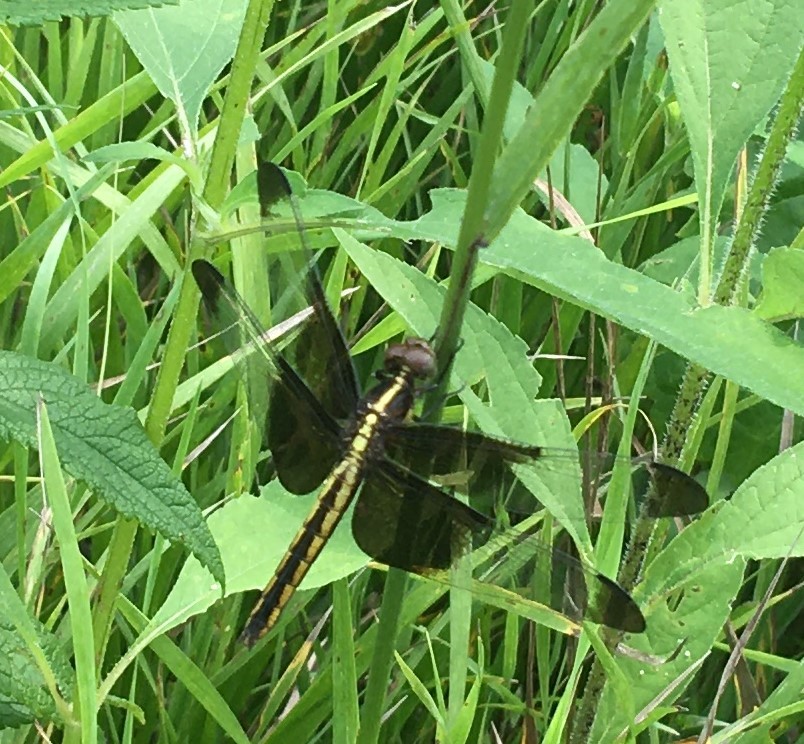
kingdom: Animalia
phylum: Arthropoda
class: Insecta
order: Odonata
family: Libellulidae
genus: Libellula
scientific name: Libellula luctuosa
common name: Widow skimmer
